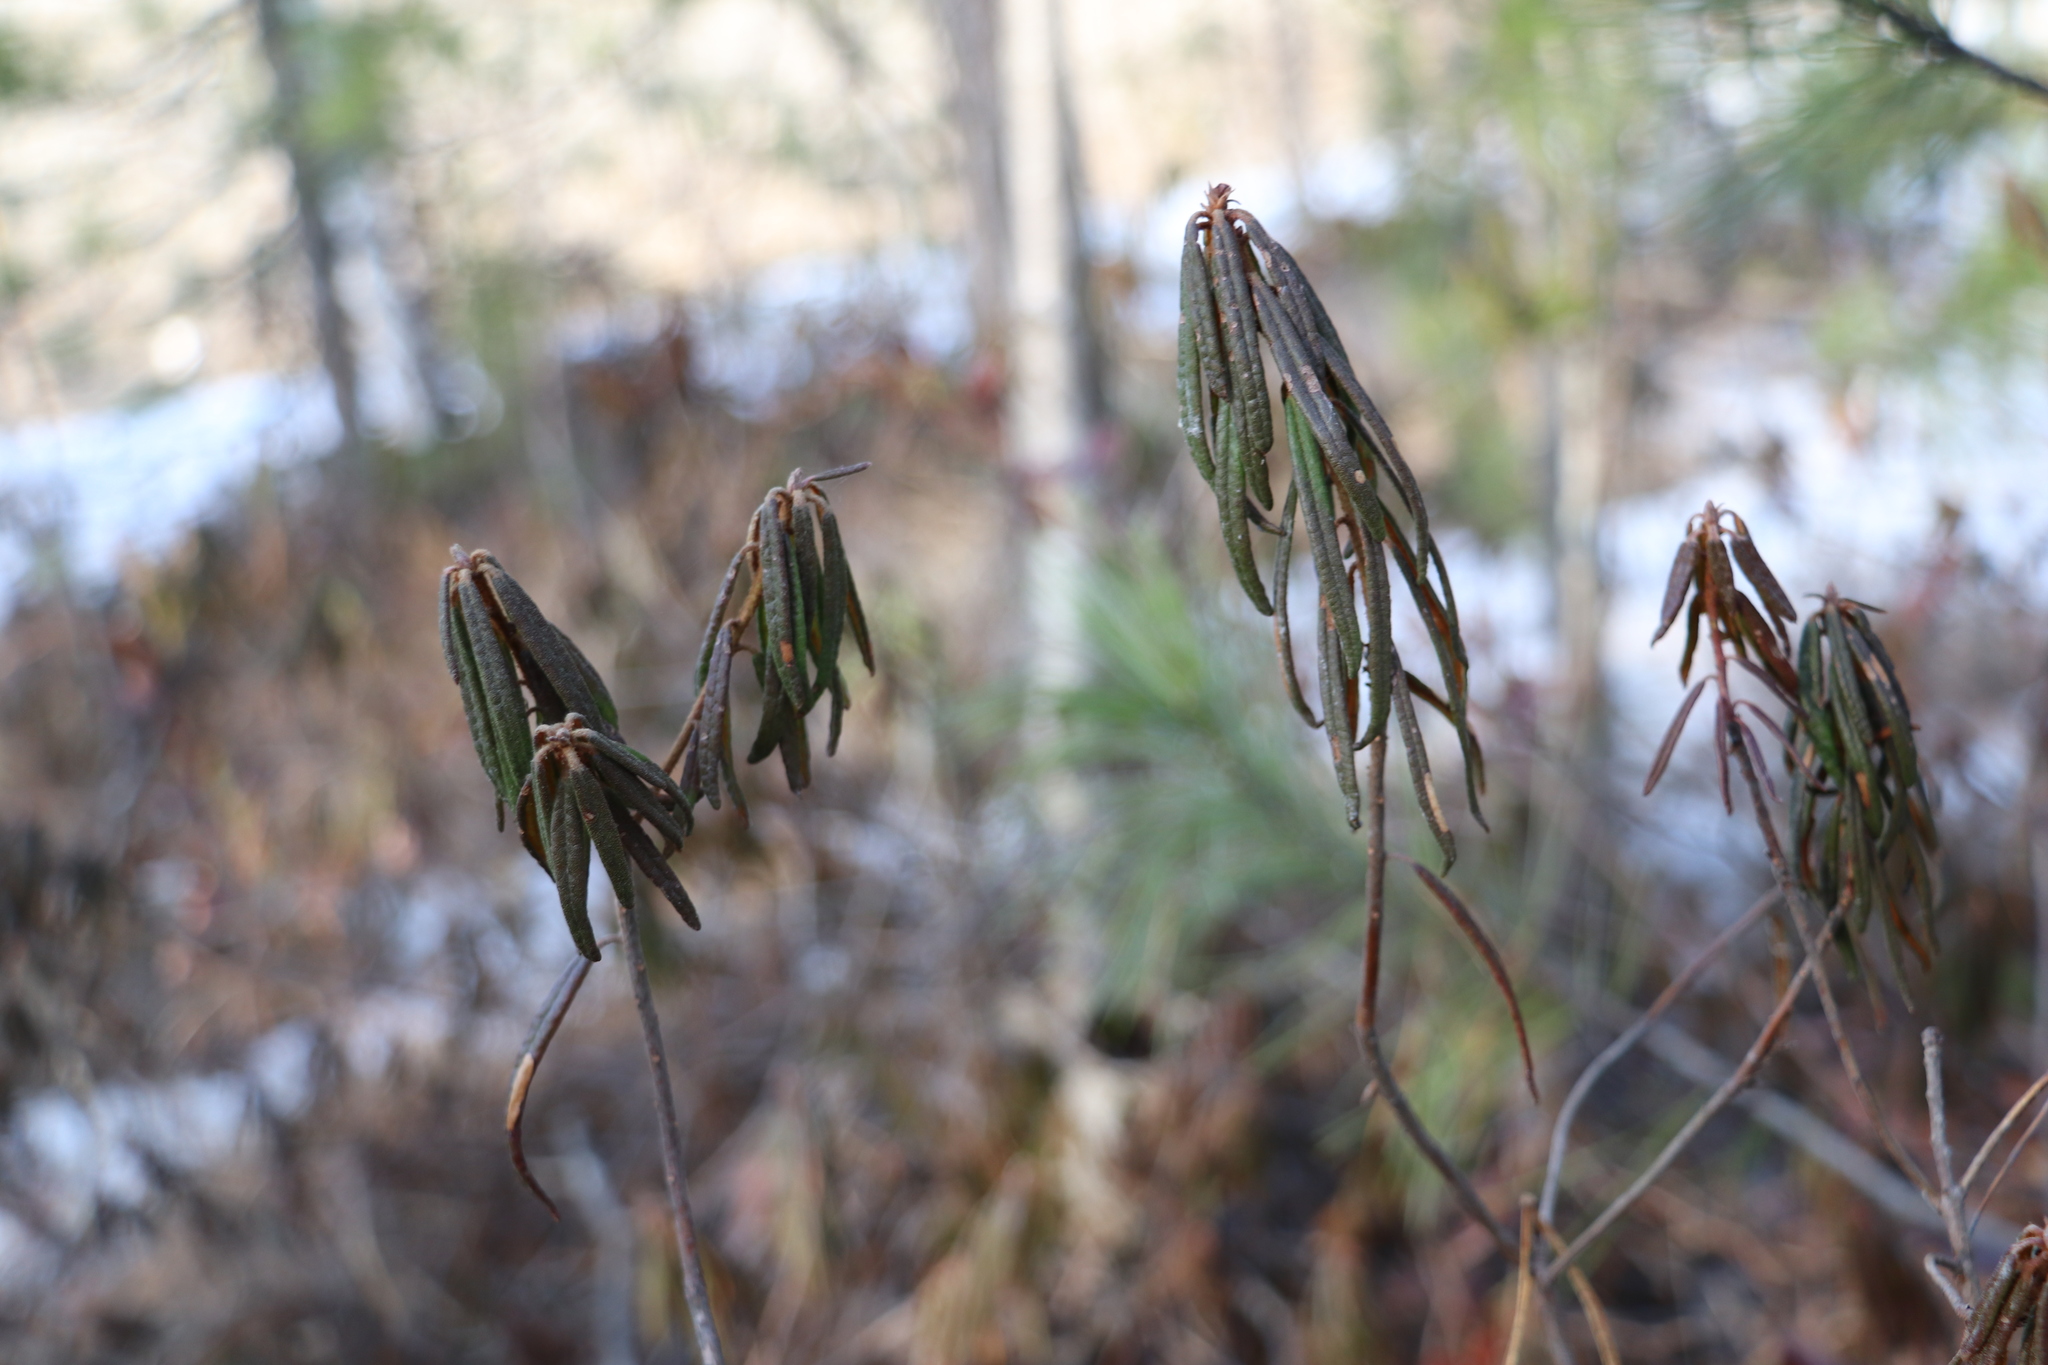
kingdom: Plantae
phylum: Tracheophyta
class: Magnoliopsida
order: Ericales
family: Ericaceae
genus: Rhododendron
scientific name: Rhododendron tomentosum
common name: Marsh labrador tea
